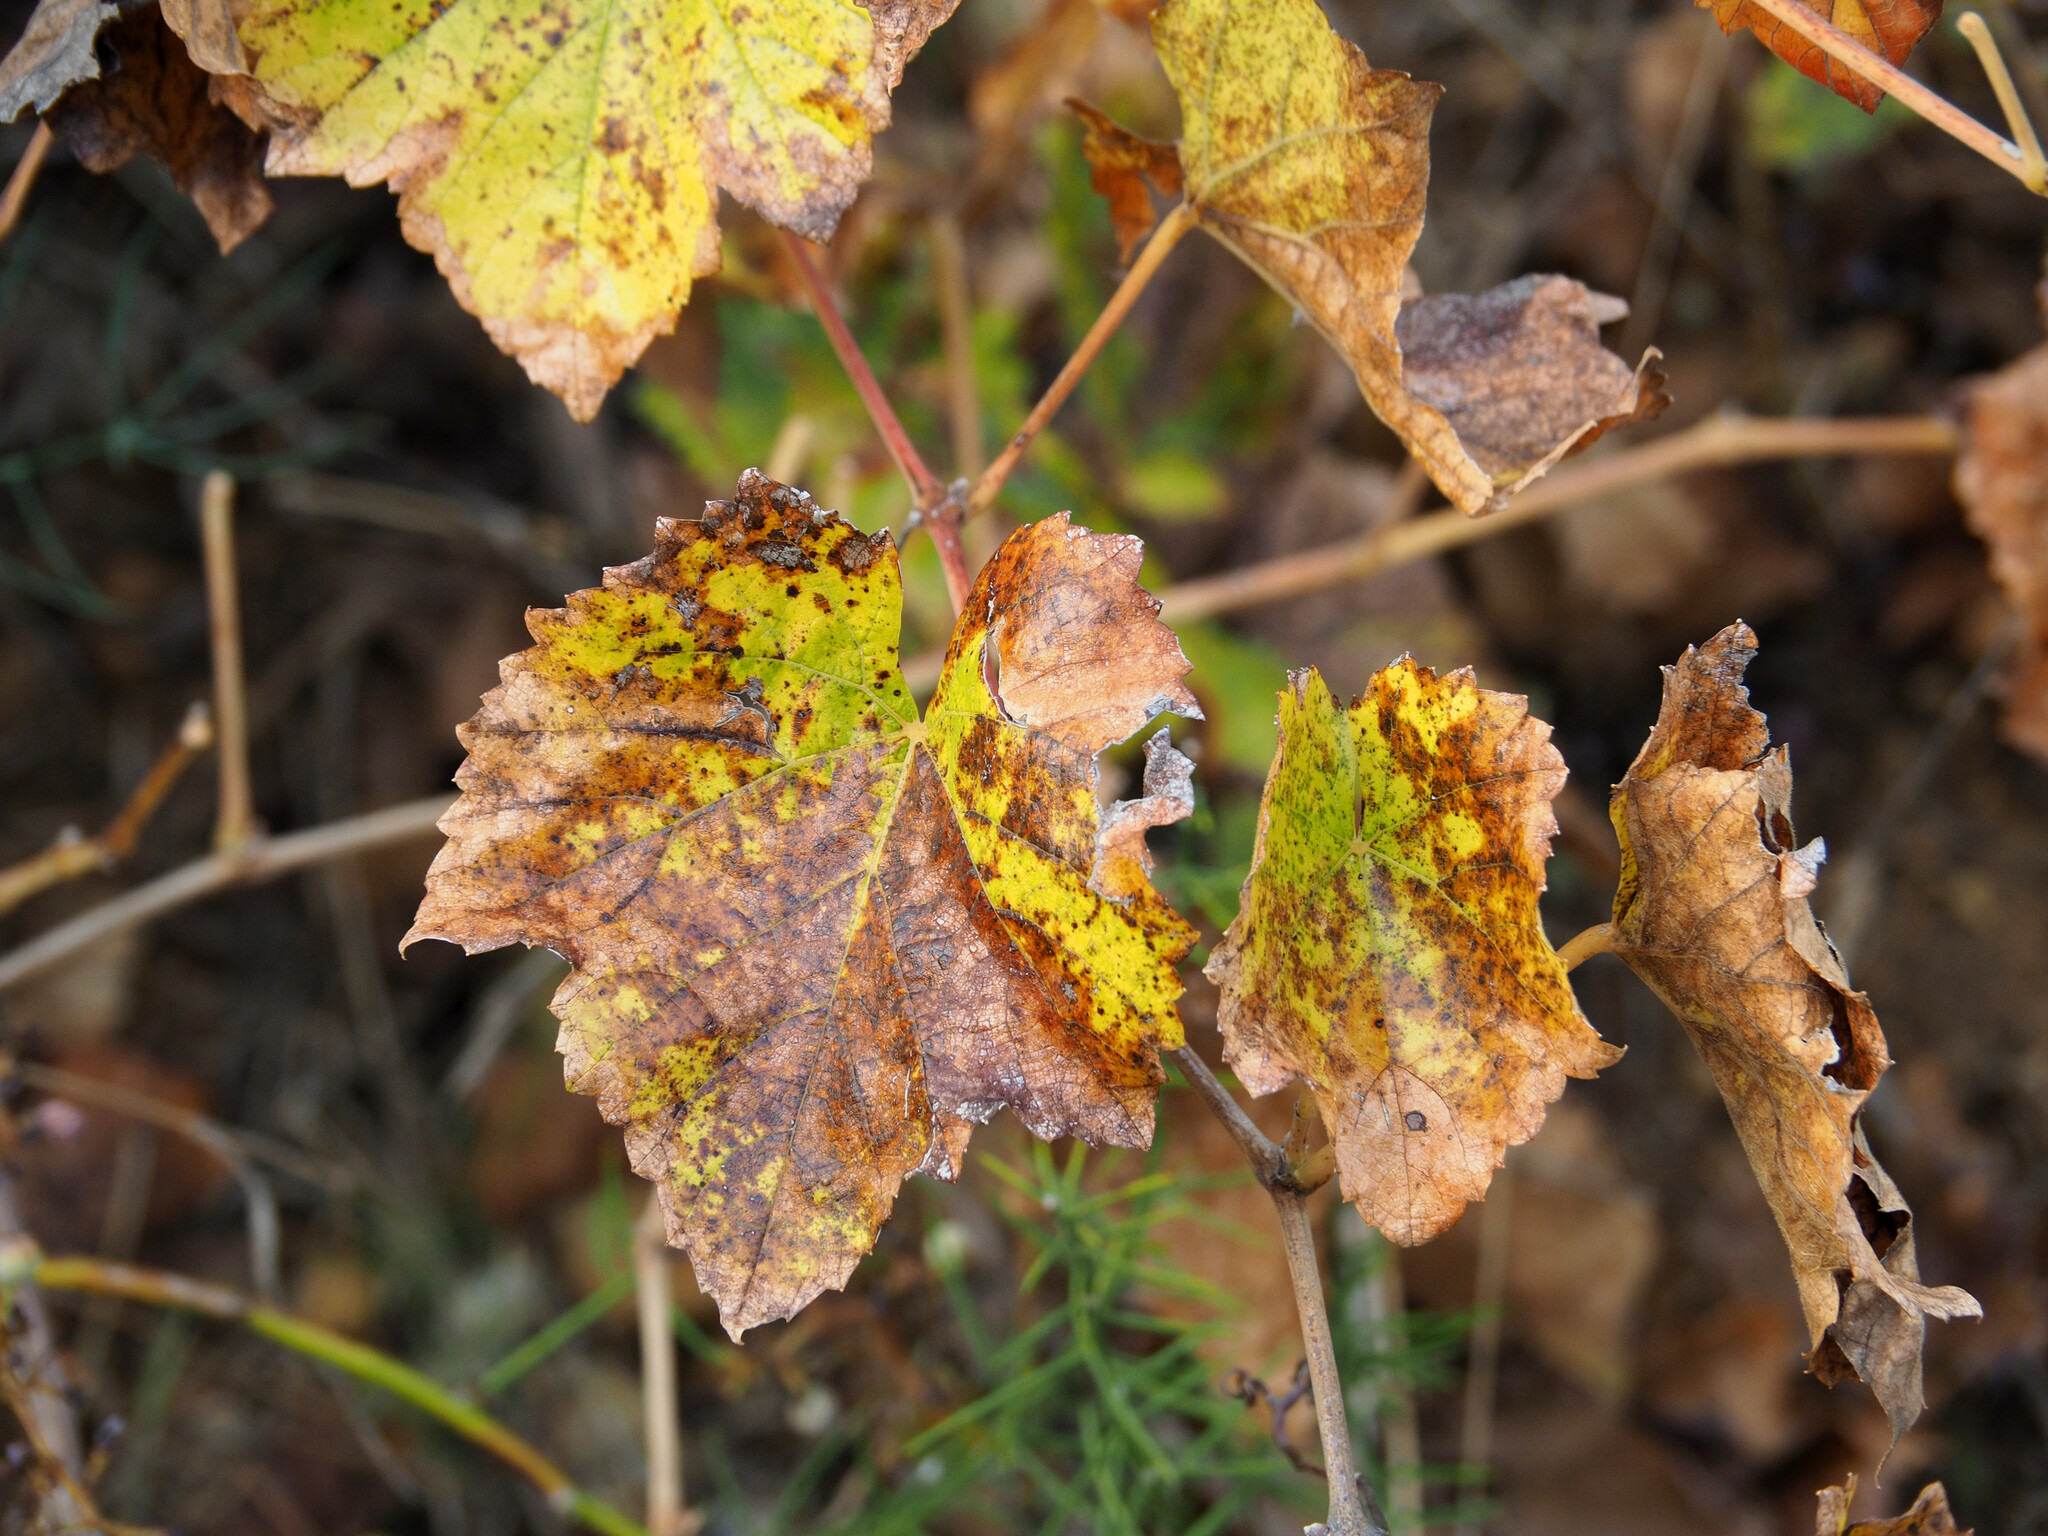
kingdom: Plantae
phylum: Tracheophyta
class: Magnoliopsida
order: Vitales
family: Vitaceae
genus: Vitis
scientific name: Vitis vinifera
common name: Grape-vine
